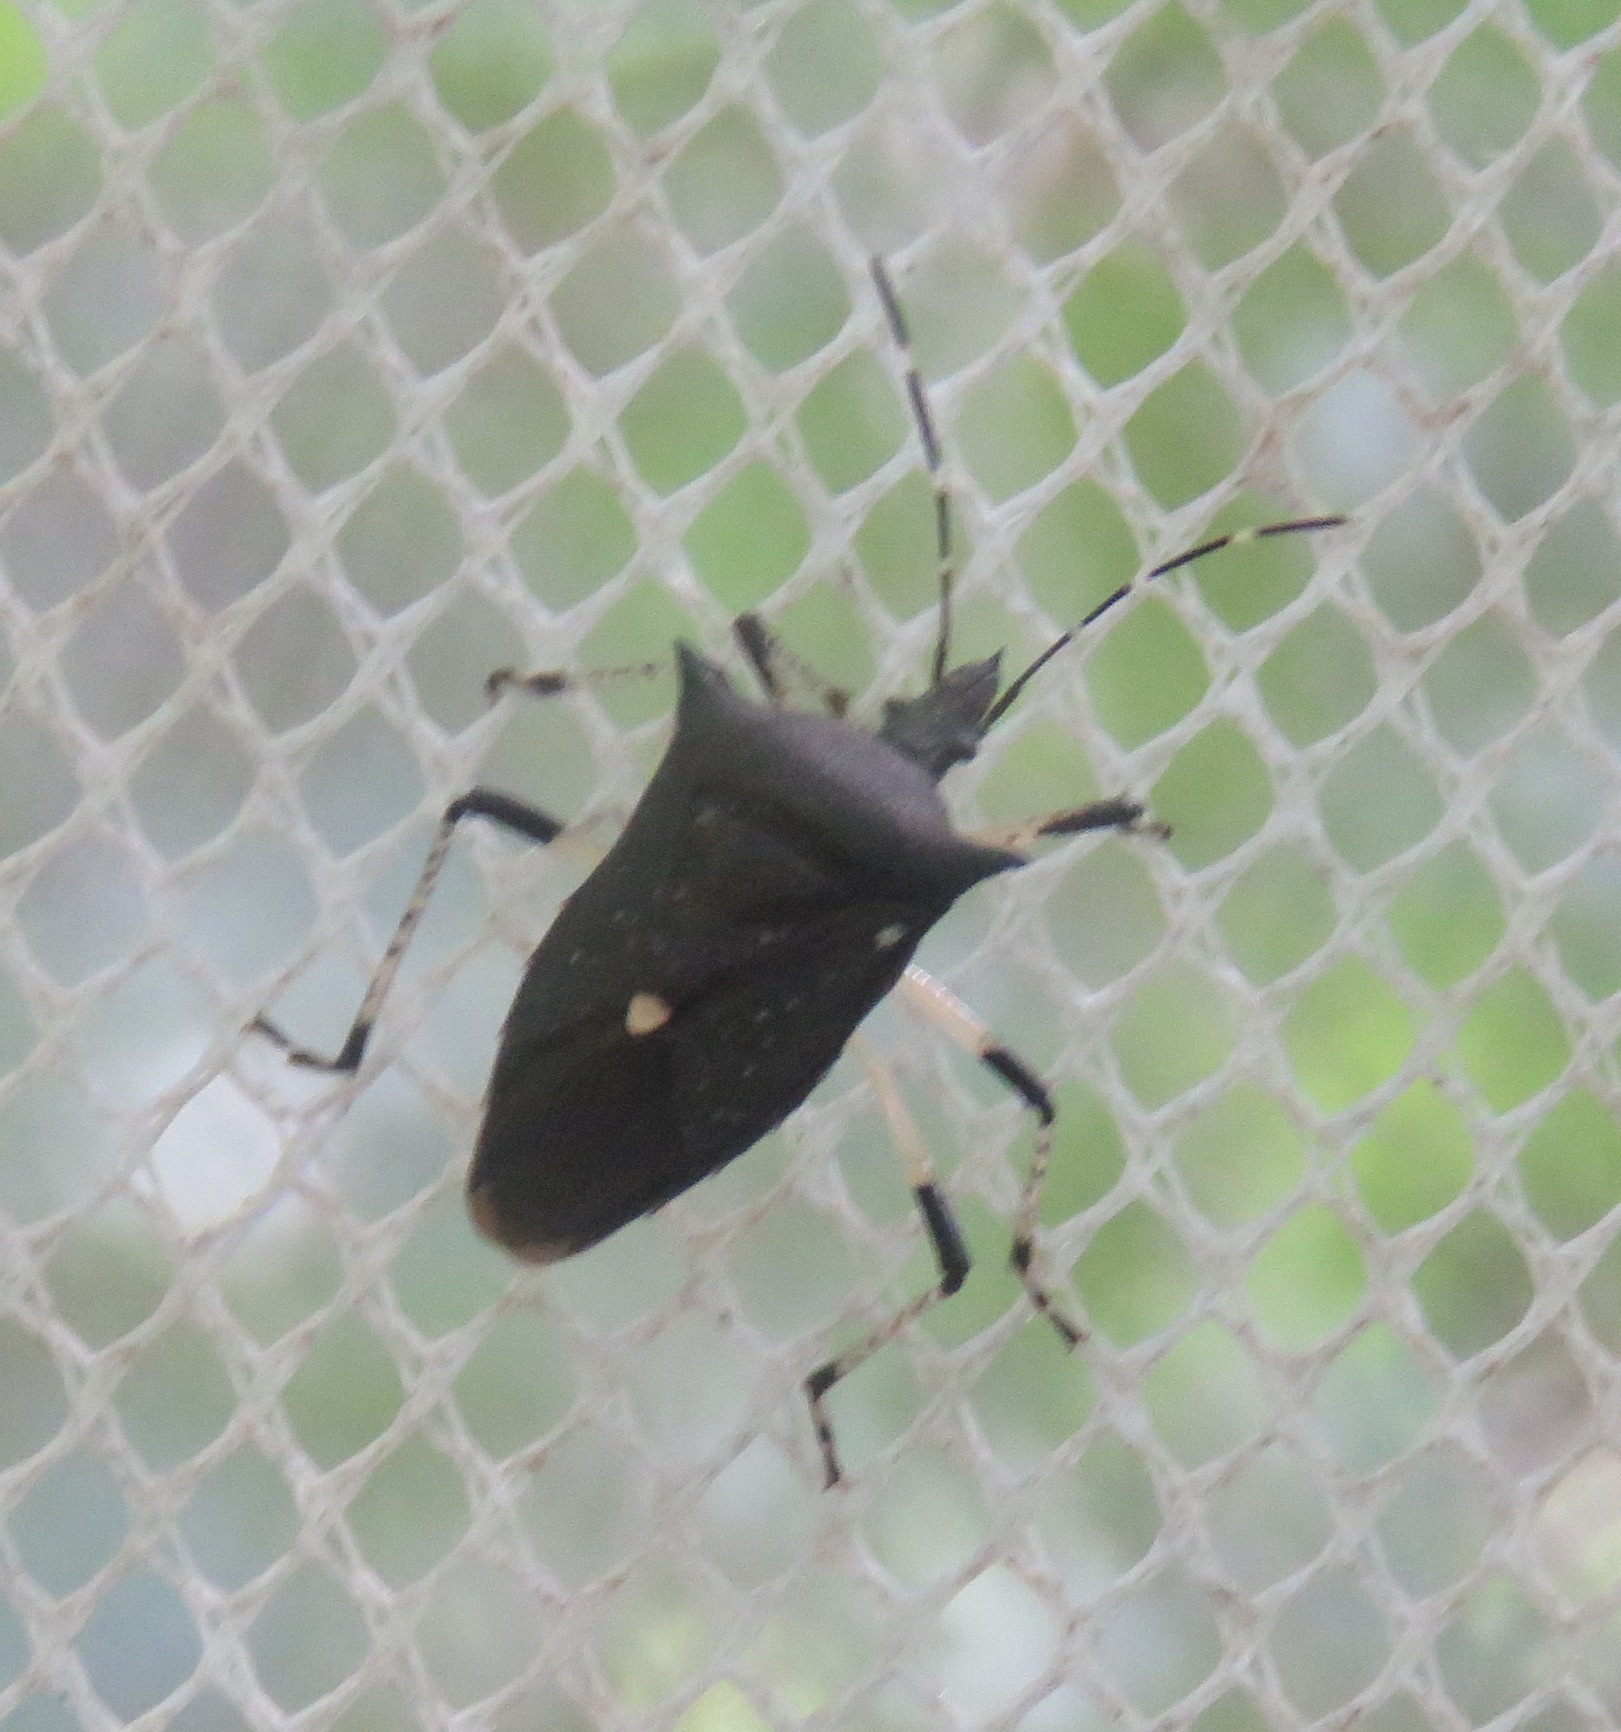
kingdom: Animalia
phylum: Arthropoda
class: Insecta
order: Hemiptera
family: Pentatomidae
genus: Proxys
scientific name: Proxys punctulatus
